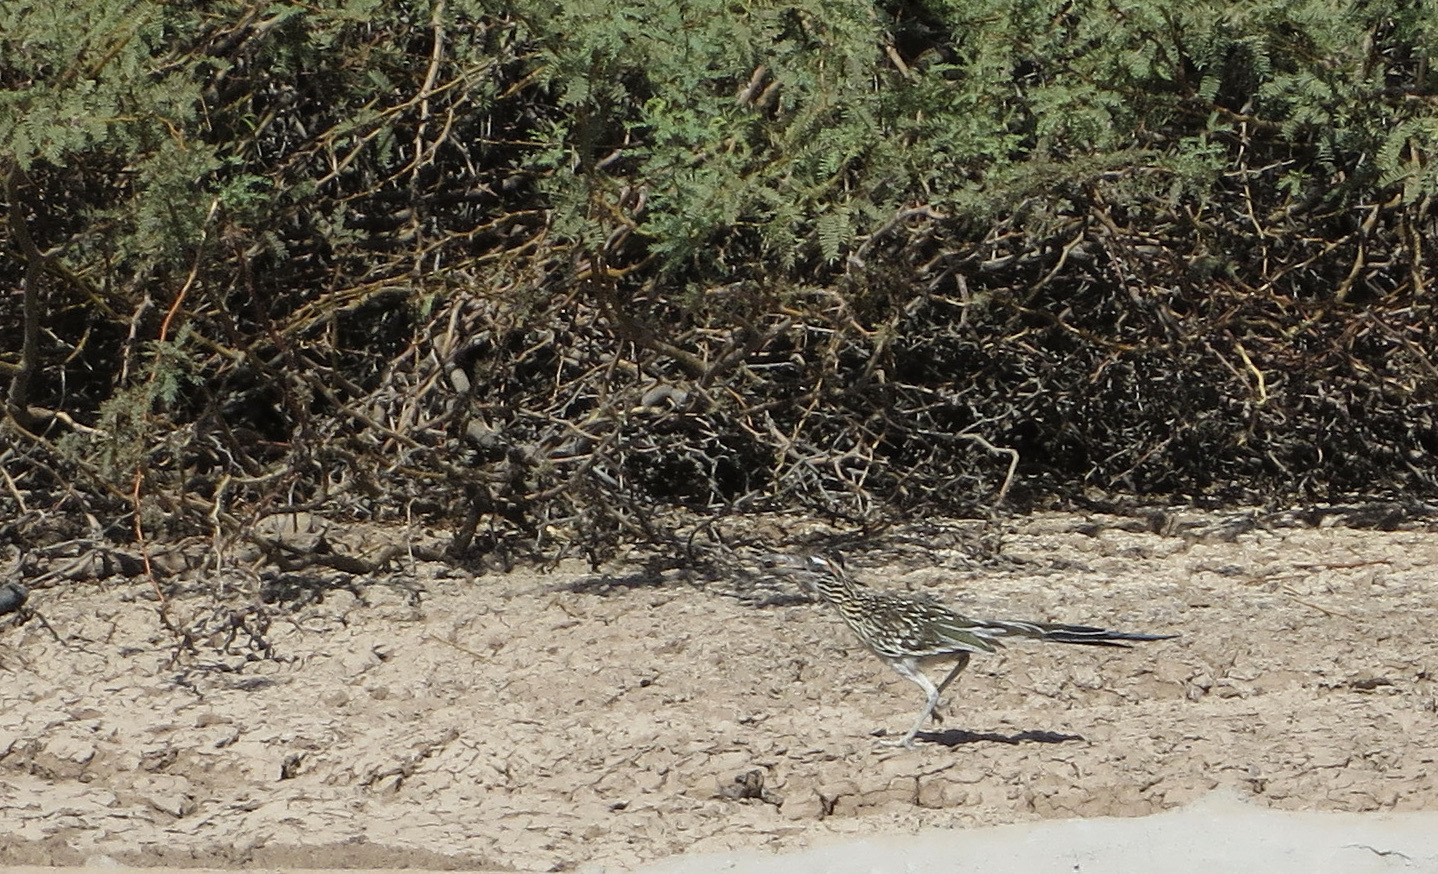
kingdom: Animalia
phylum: Chordata
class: Aves
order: Cuculiformes
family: Cuculidae
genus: Geococcyx
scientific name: Geococcyx californianus
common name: Greater roadrunner
